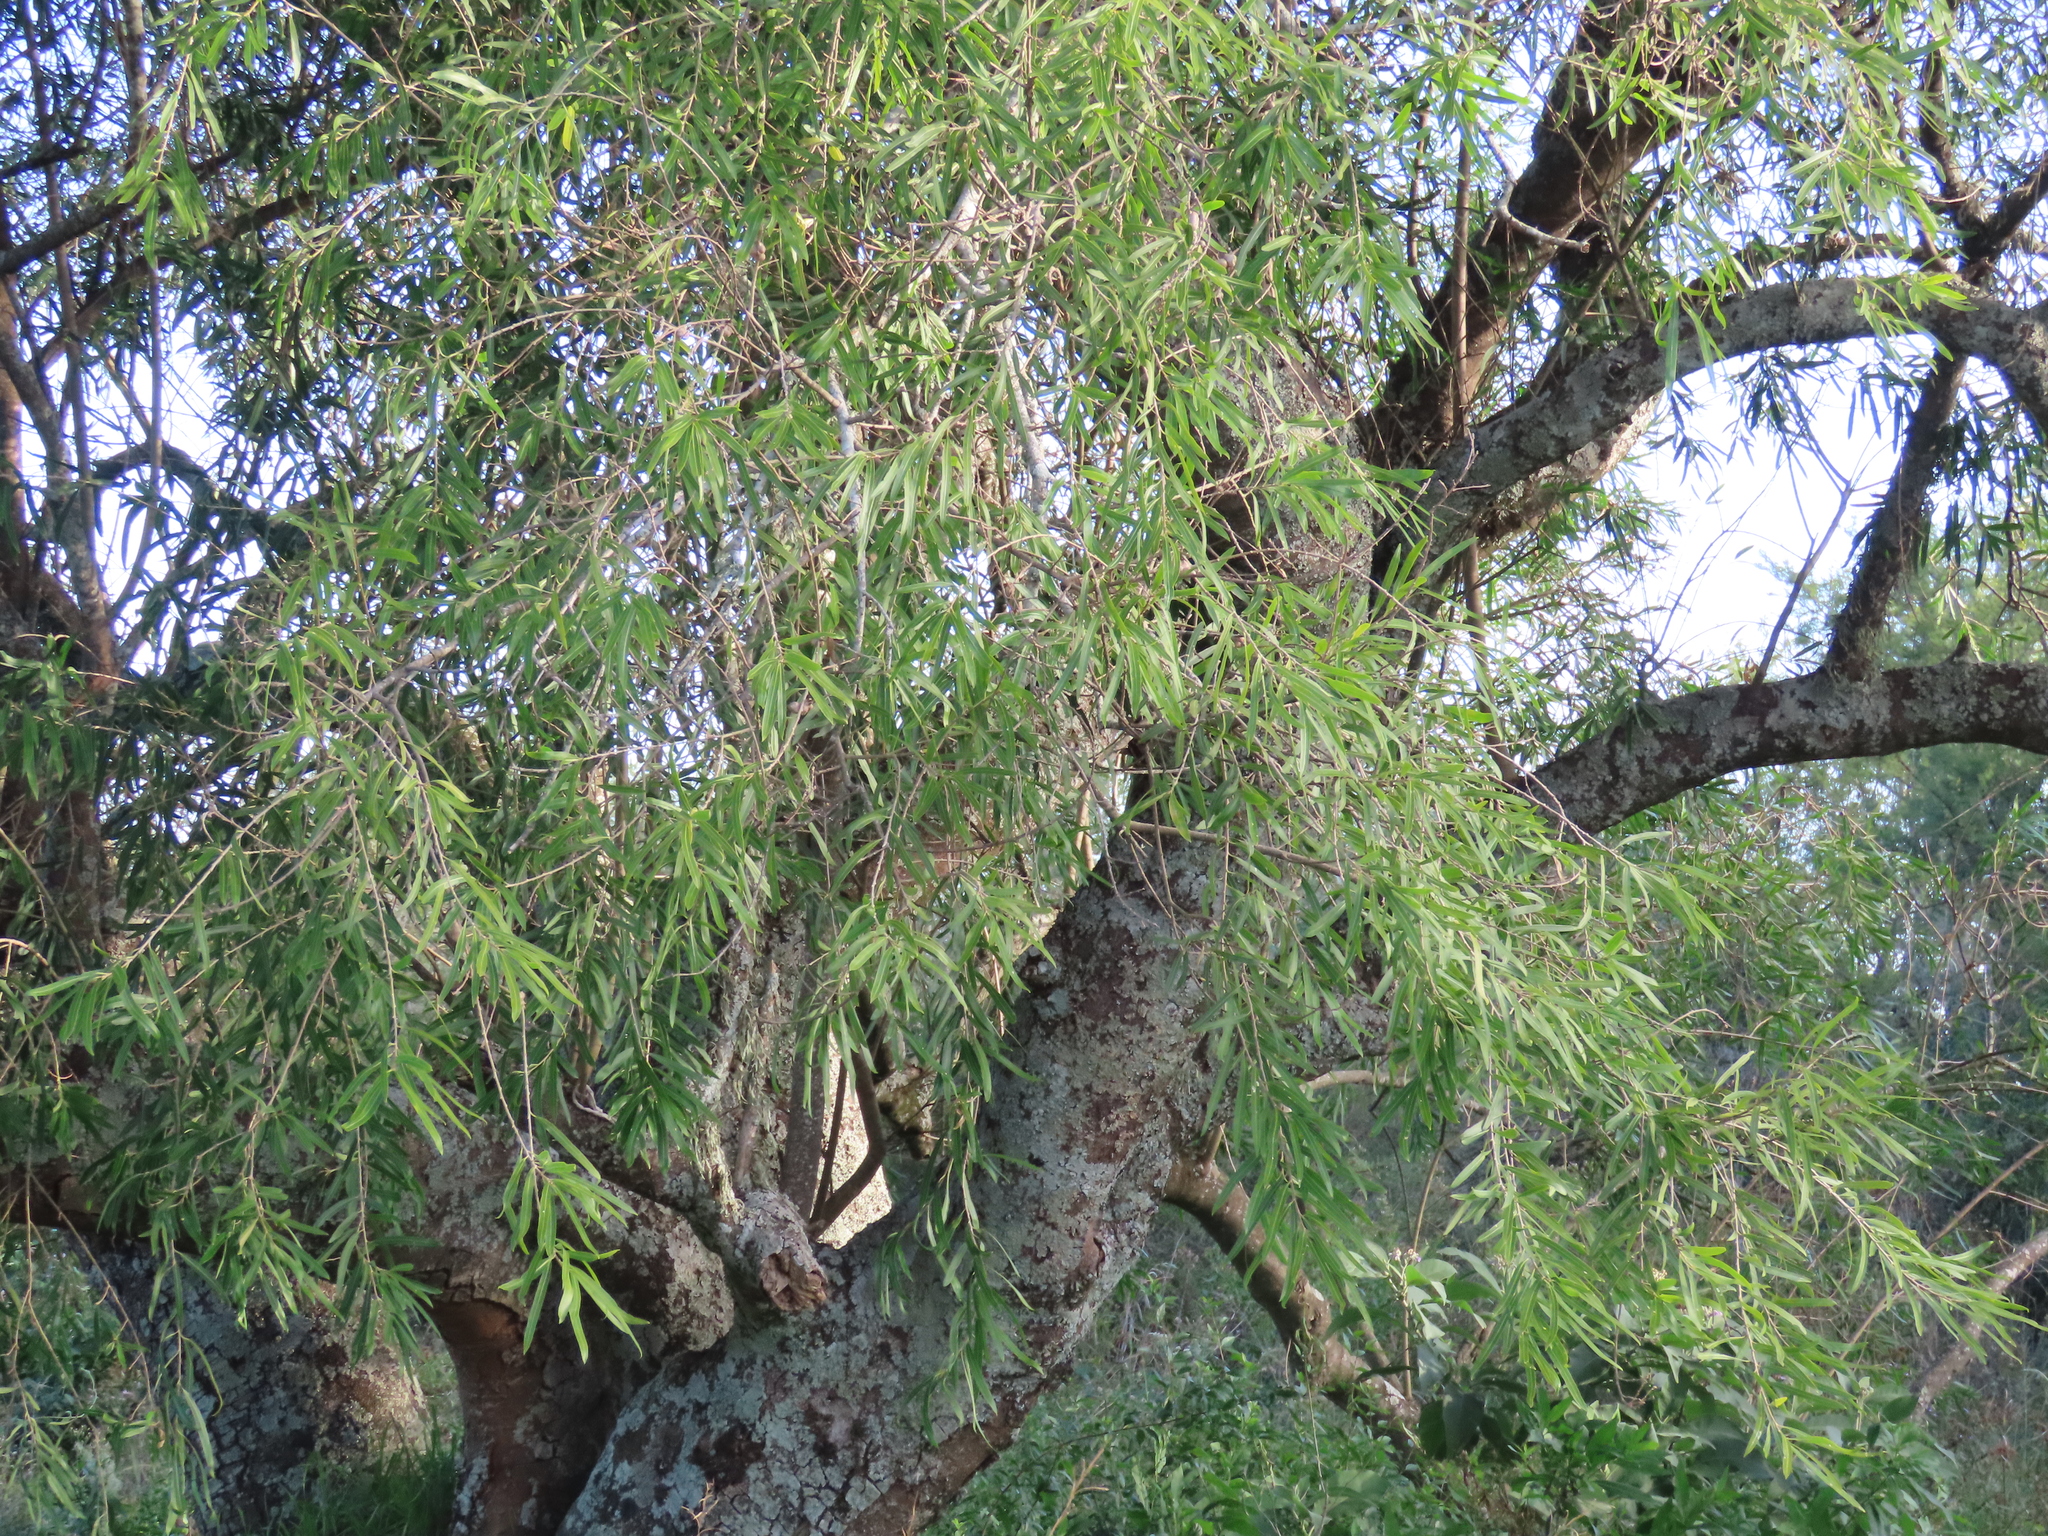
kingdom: Plantae
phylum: Tracheophyta
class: Magnoliopsida
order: Malpighiales
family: Euphorbiaceae
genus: Sapium
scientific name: Sapium haematospermum
